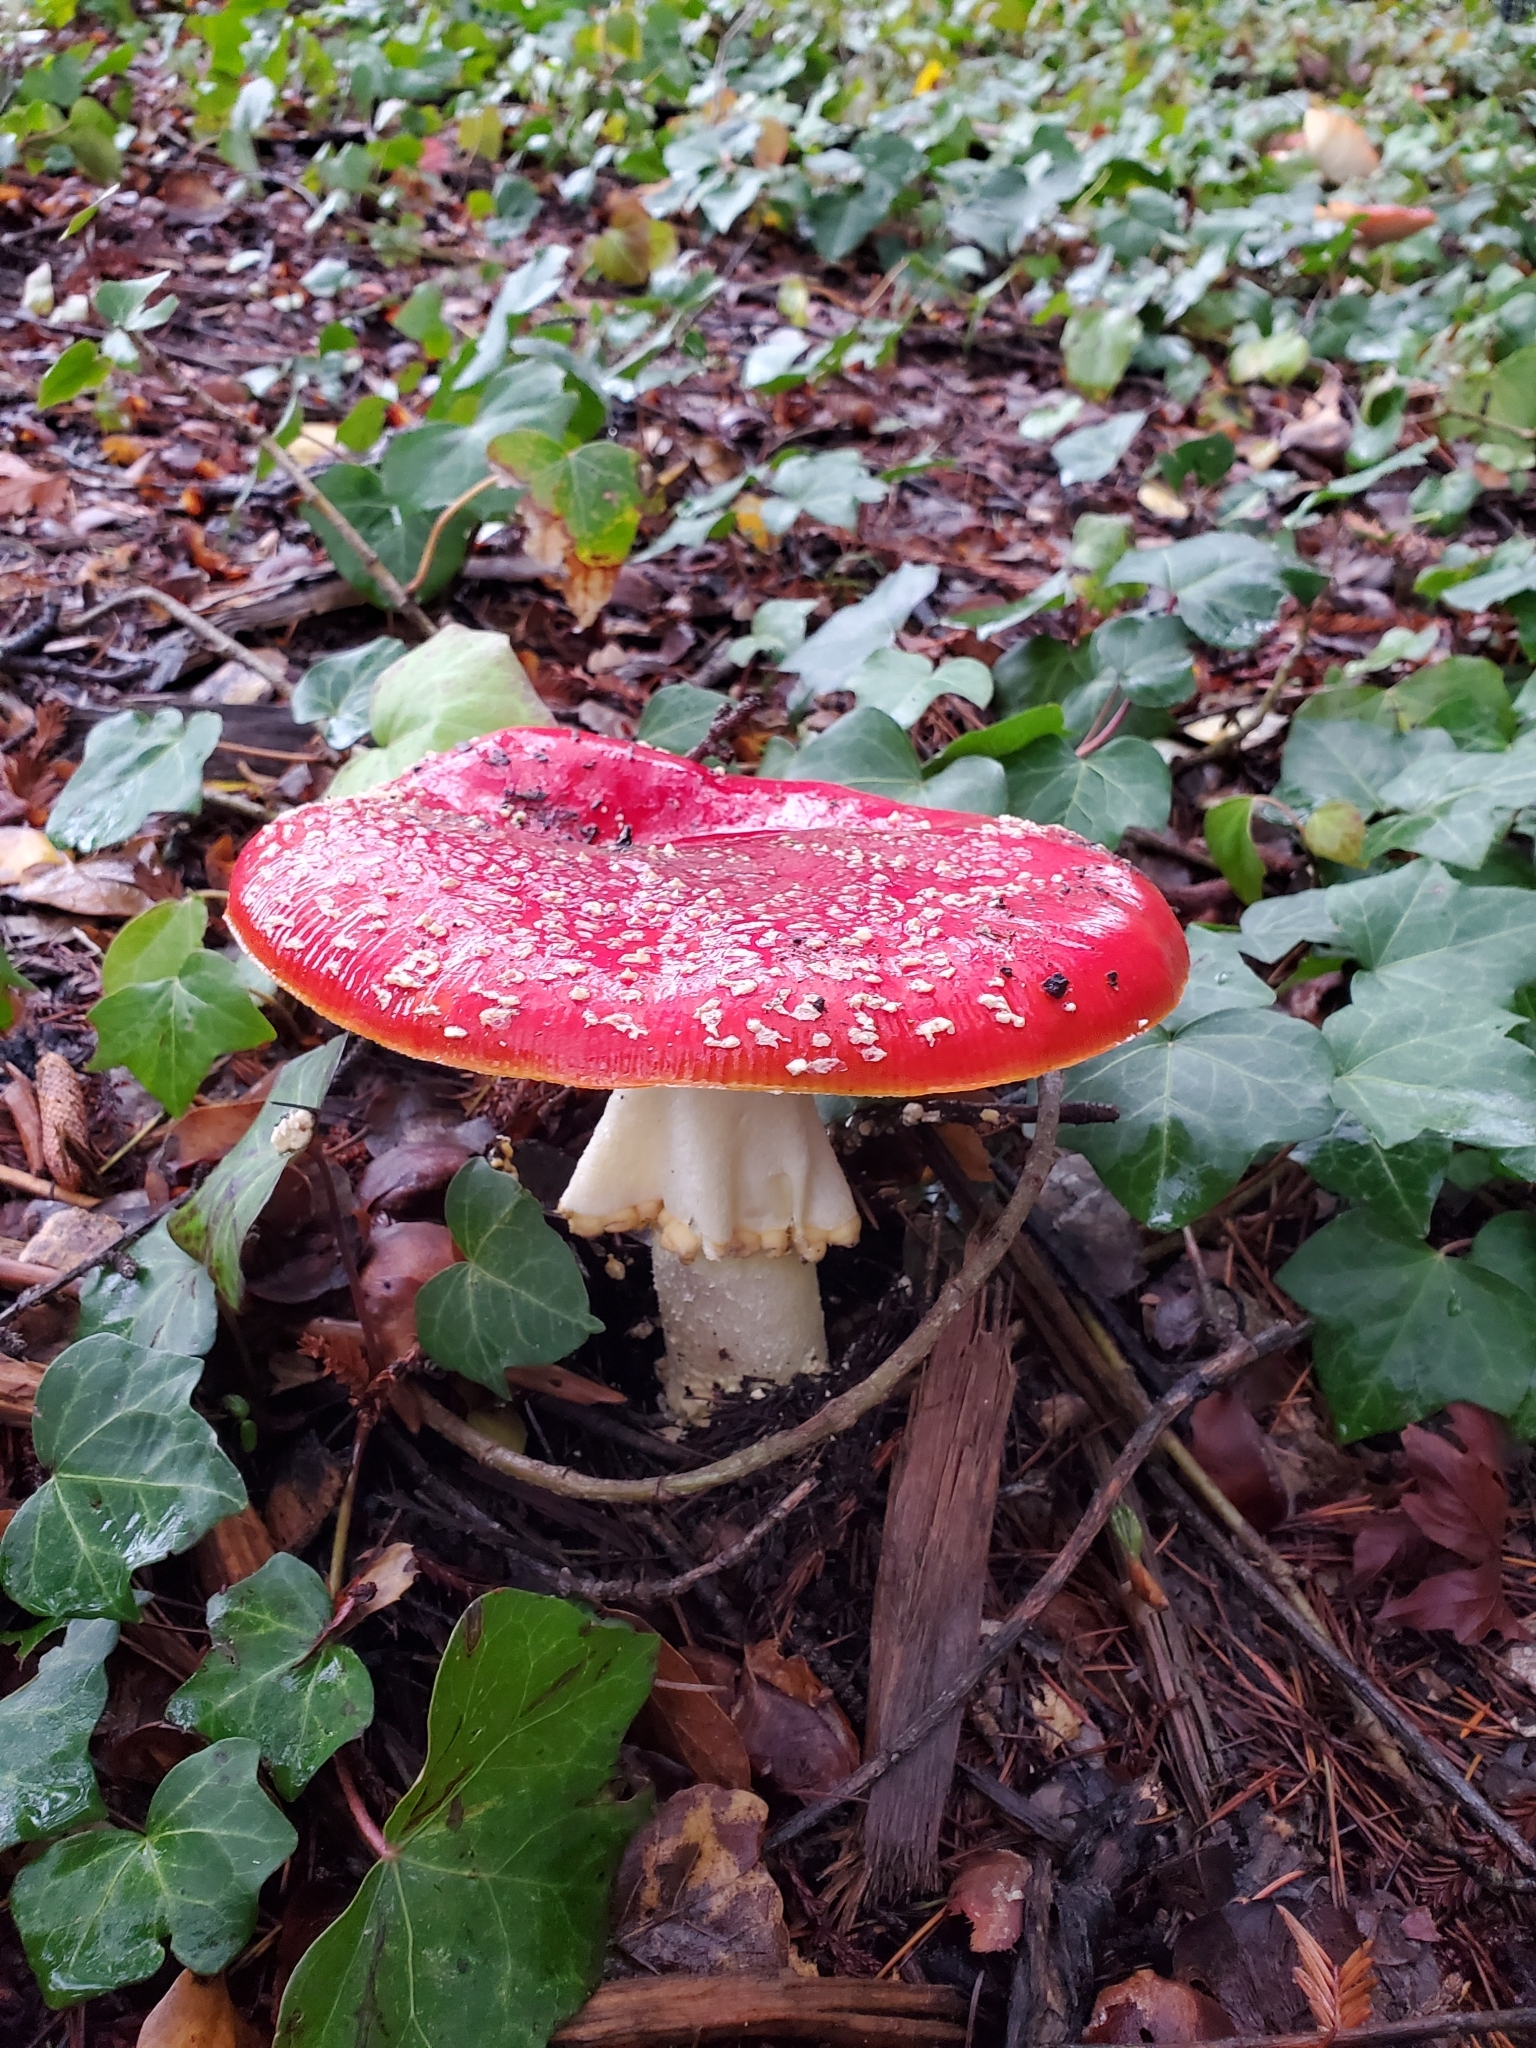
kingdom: Fungi
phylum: Basidiomycota
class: Agaricomycetes
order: Agaricales
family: Amanitaceae
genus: Amanita
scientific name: Amanita muscaria
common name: Fly agaric
